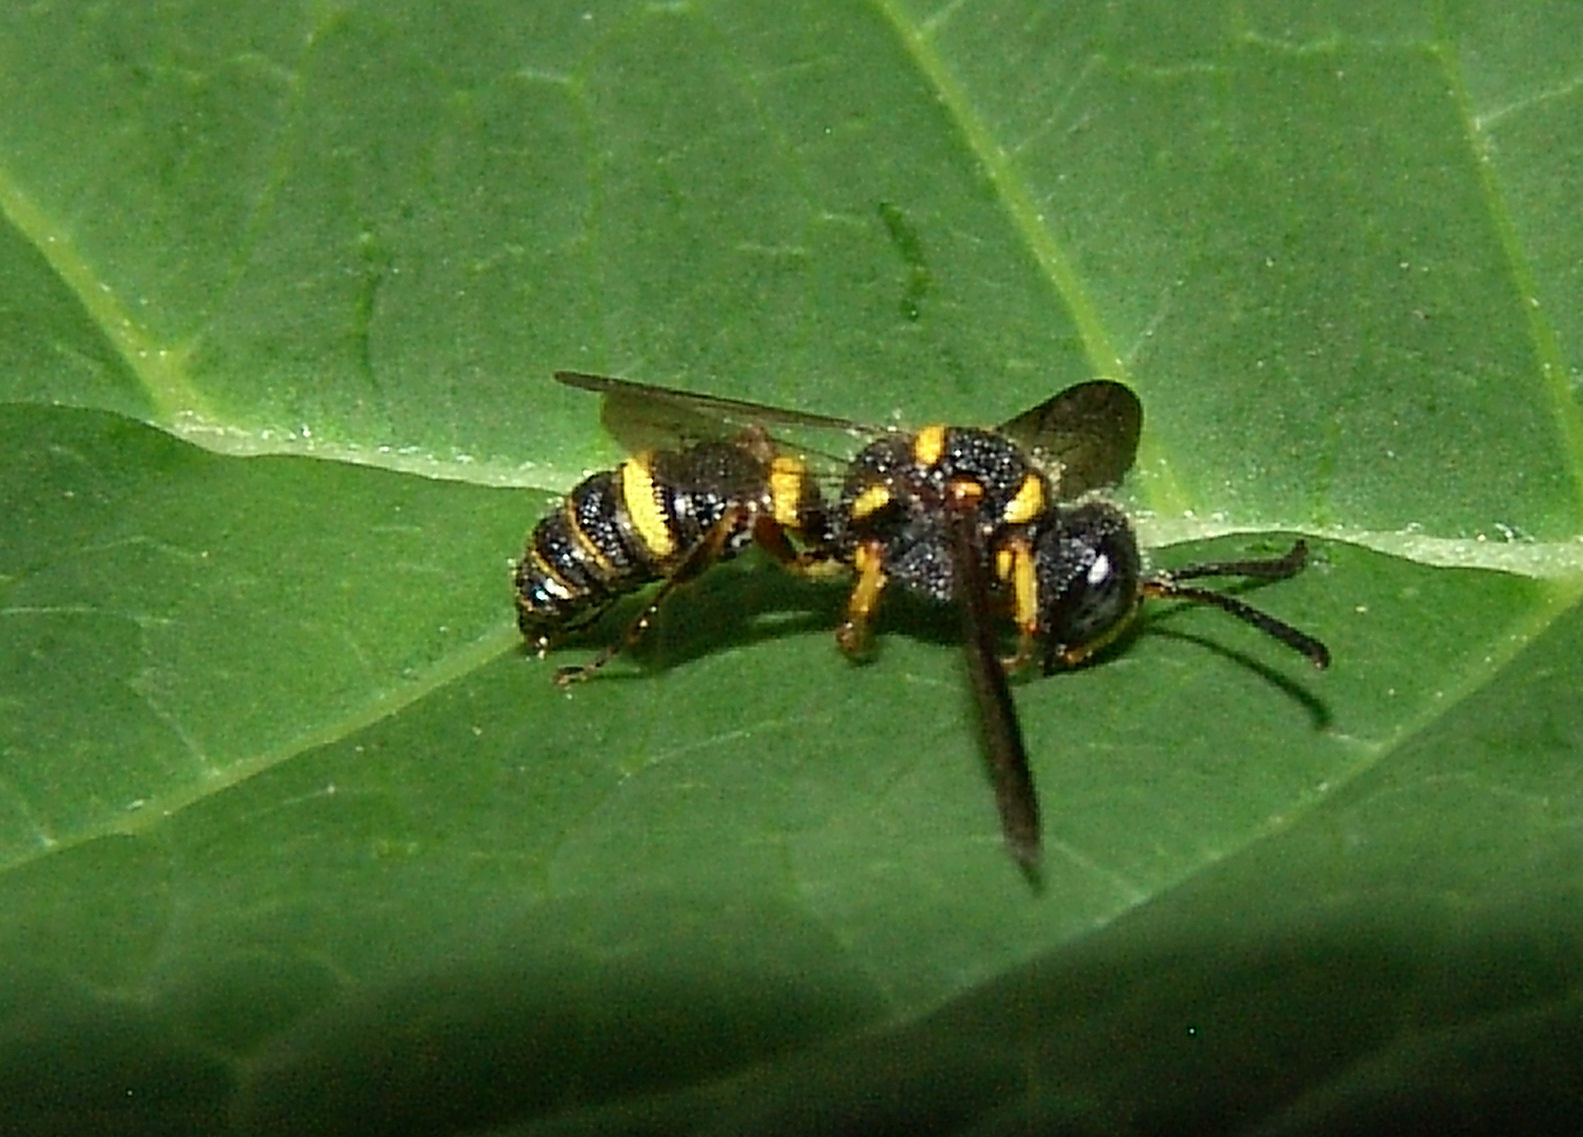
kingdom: Animalia
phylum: Arthropoda
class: Insecta
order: Hymenoptera
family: Crabronidae
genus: Cerceris
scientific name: Cerceris insolita
